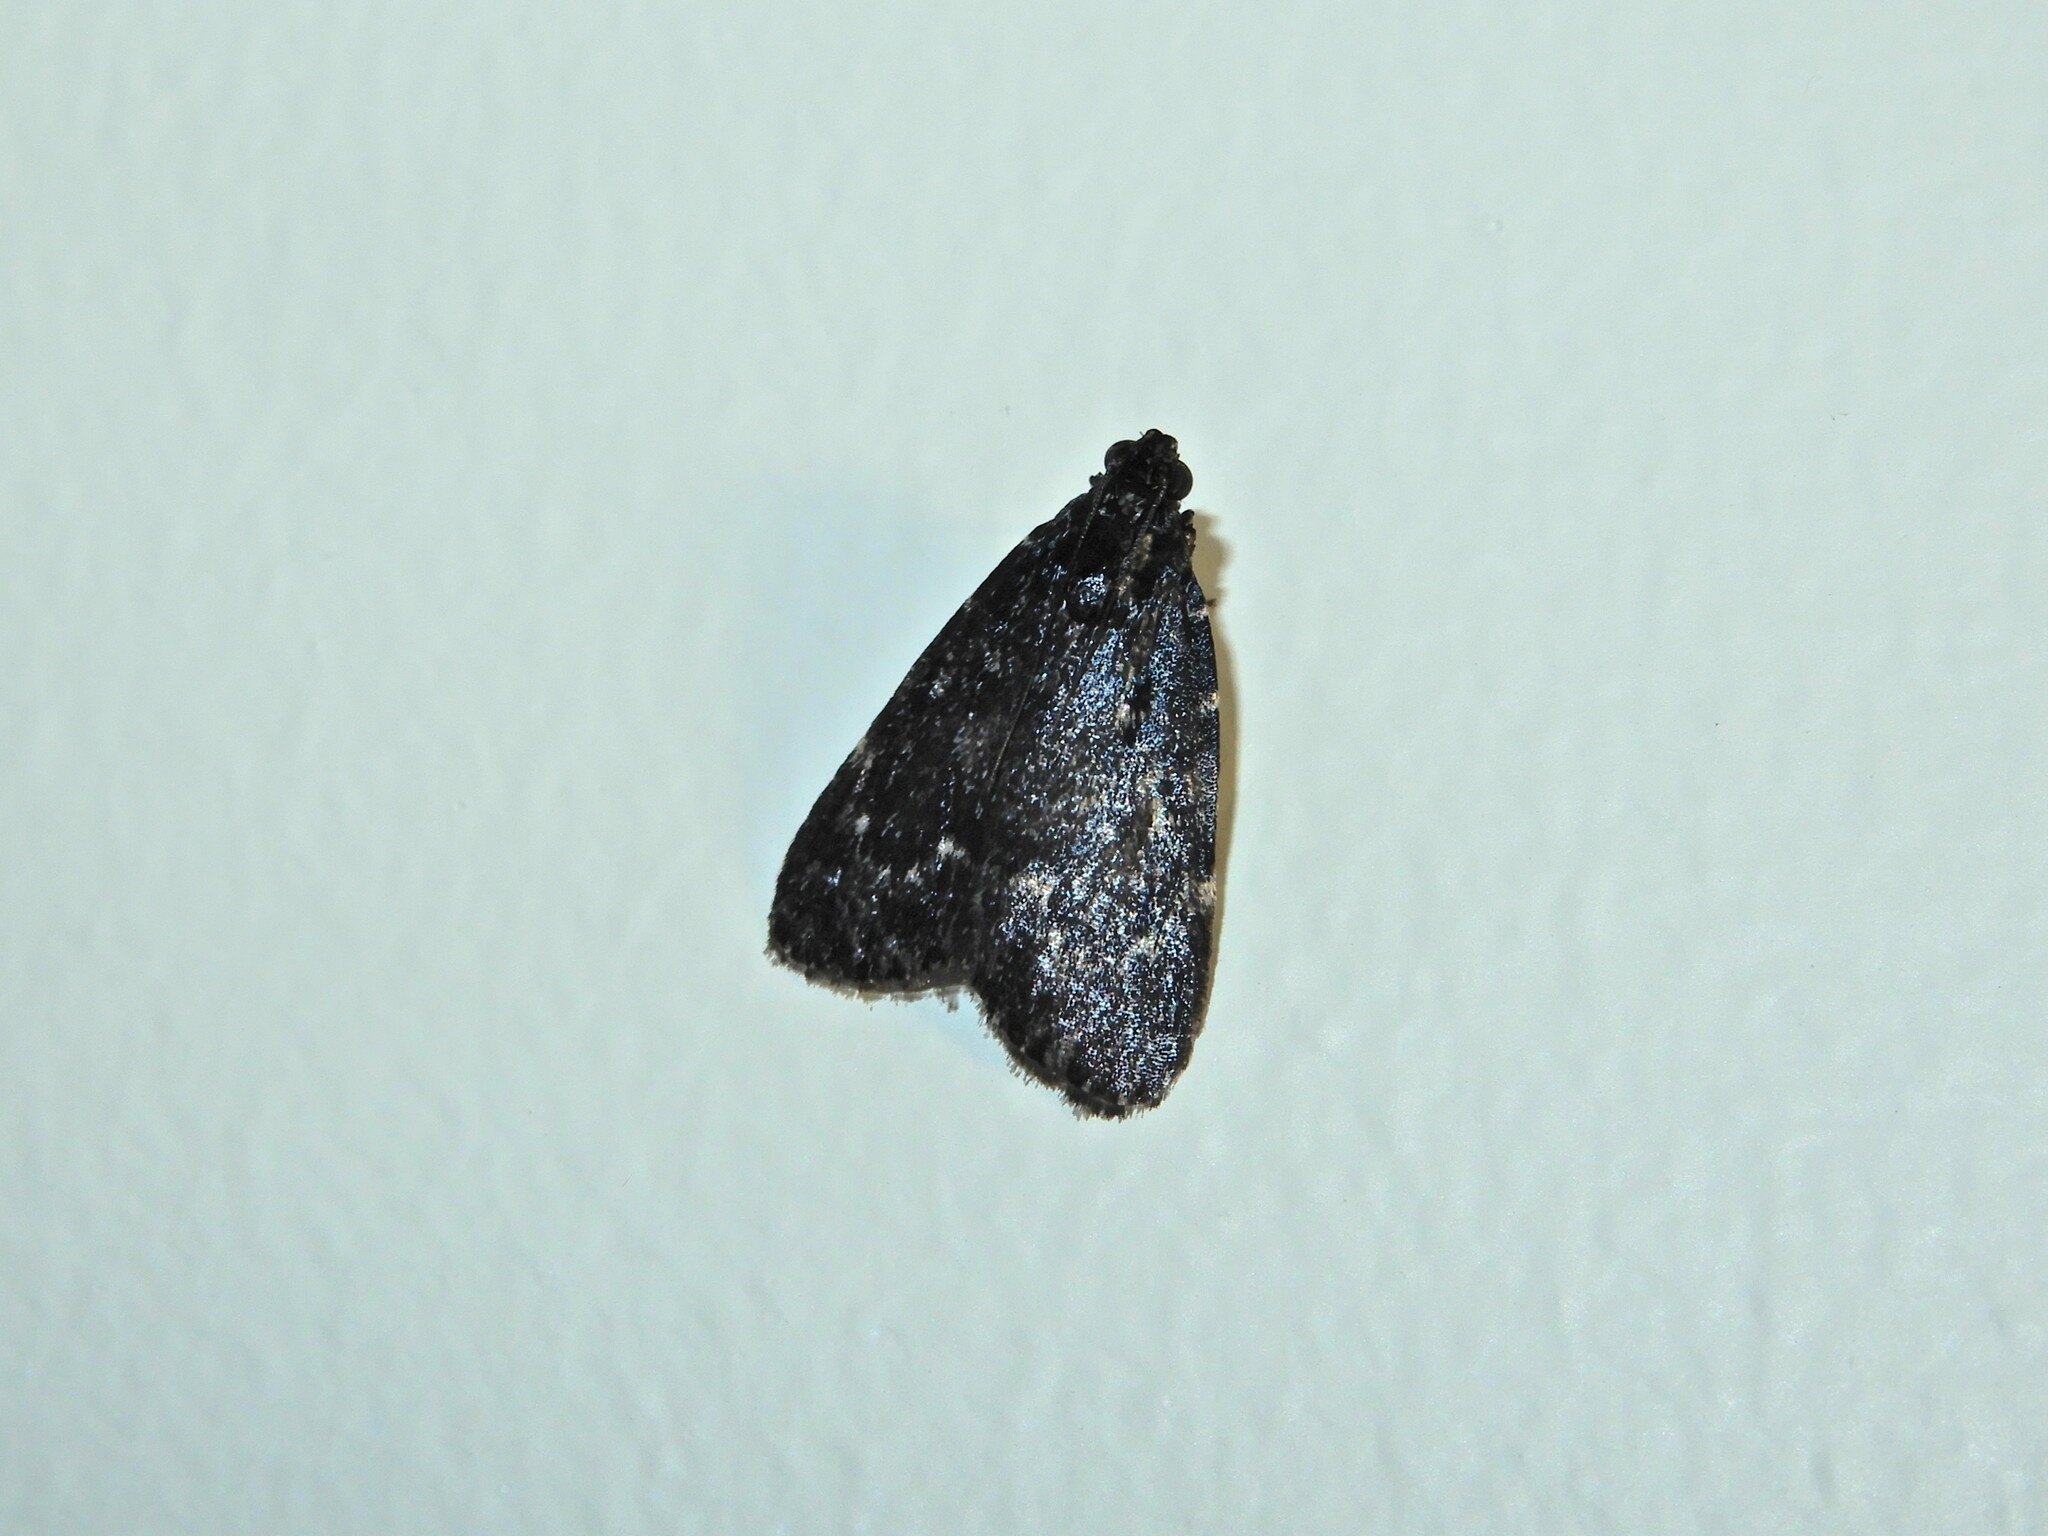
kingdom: Animalia
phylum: Arthropoda
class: Insecta
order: Lepidoptera
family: Pyralidae
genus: Stericta
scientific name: Stericta carbonalis
